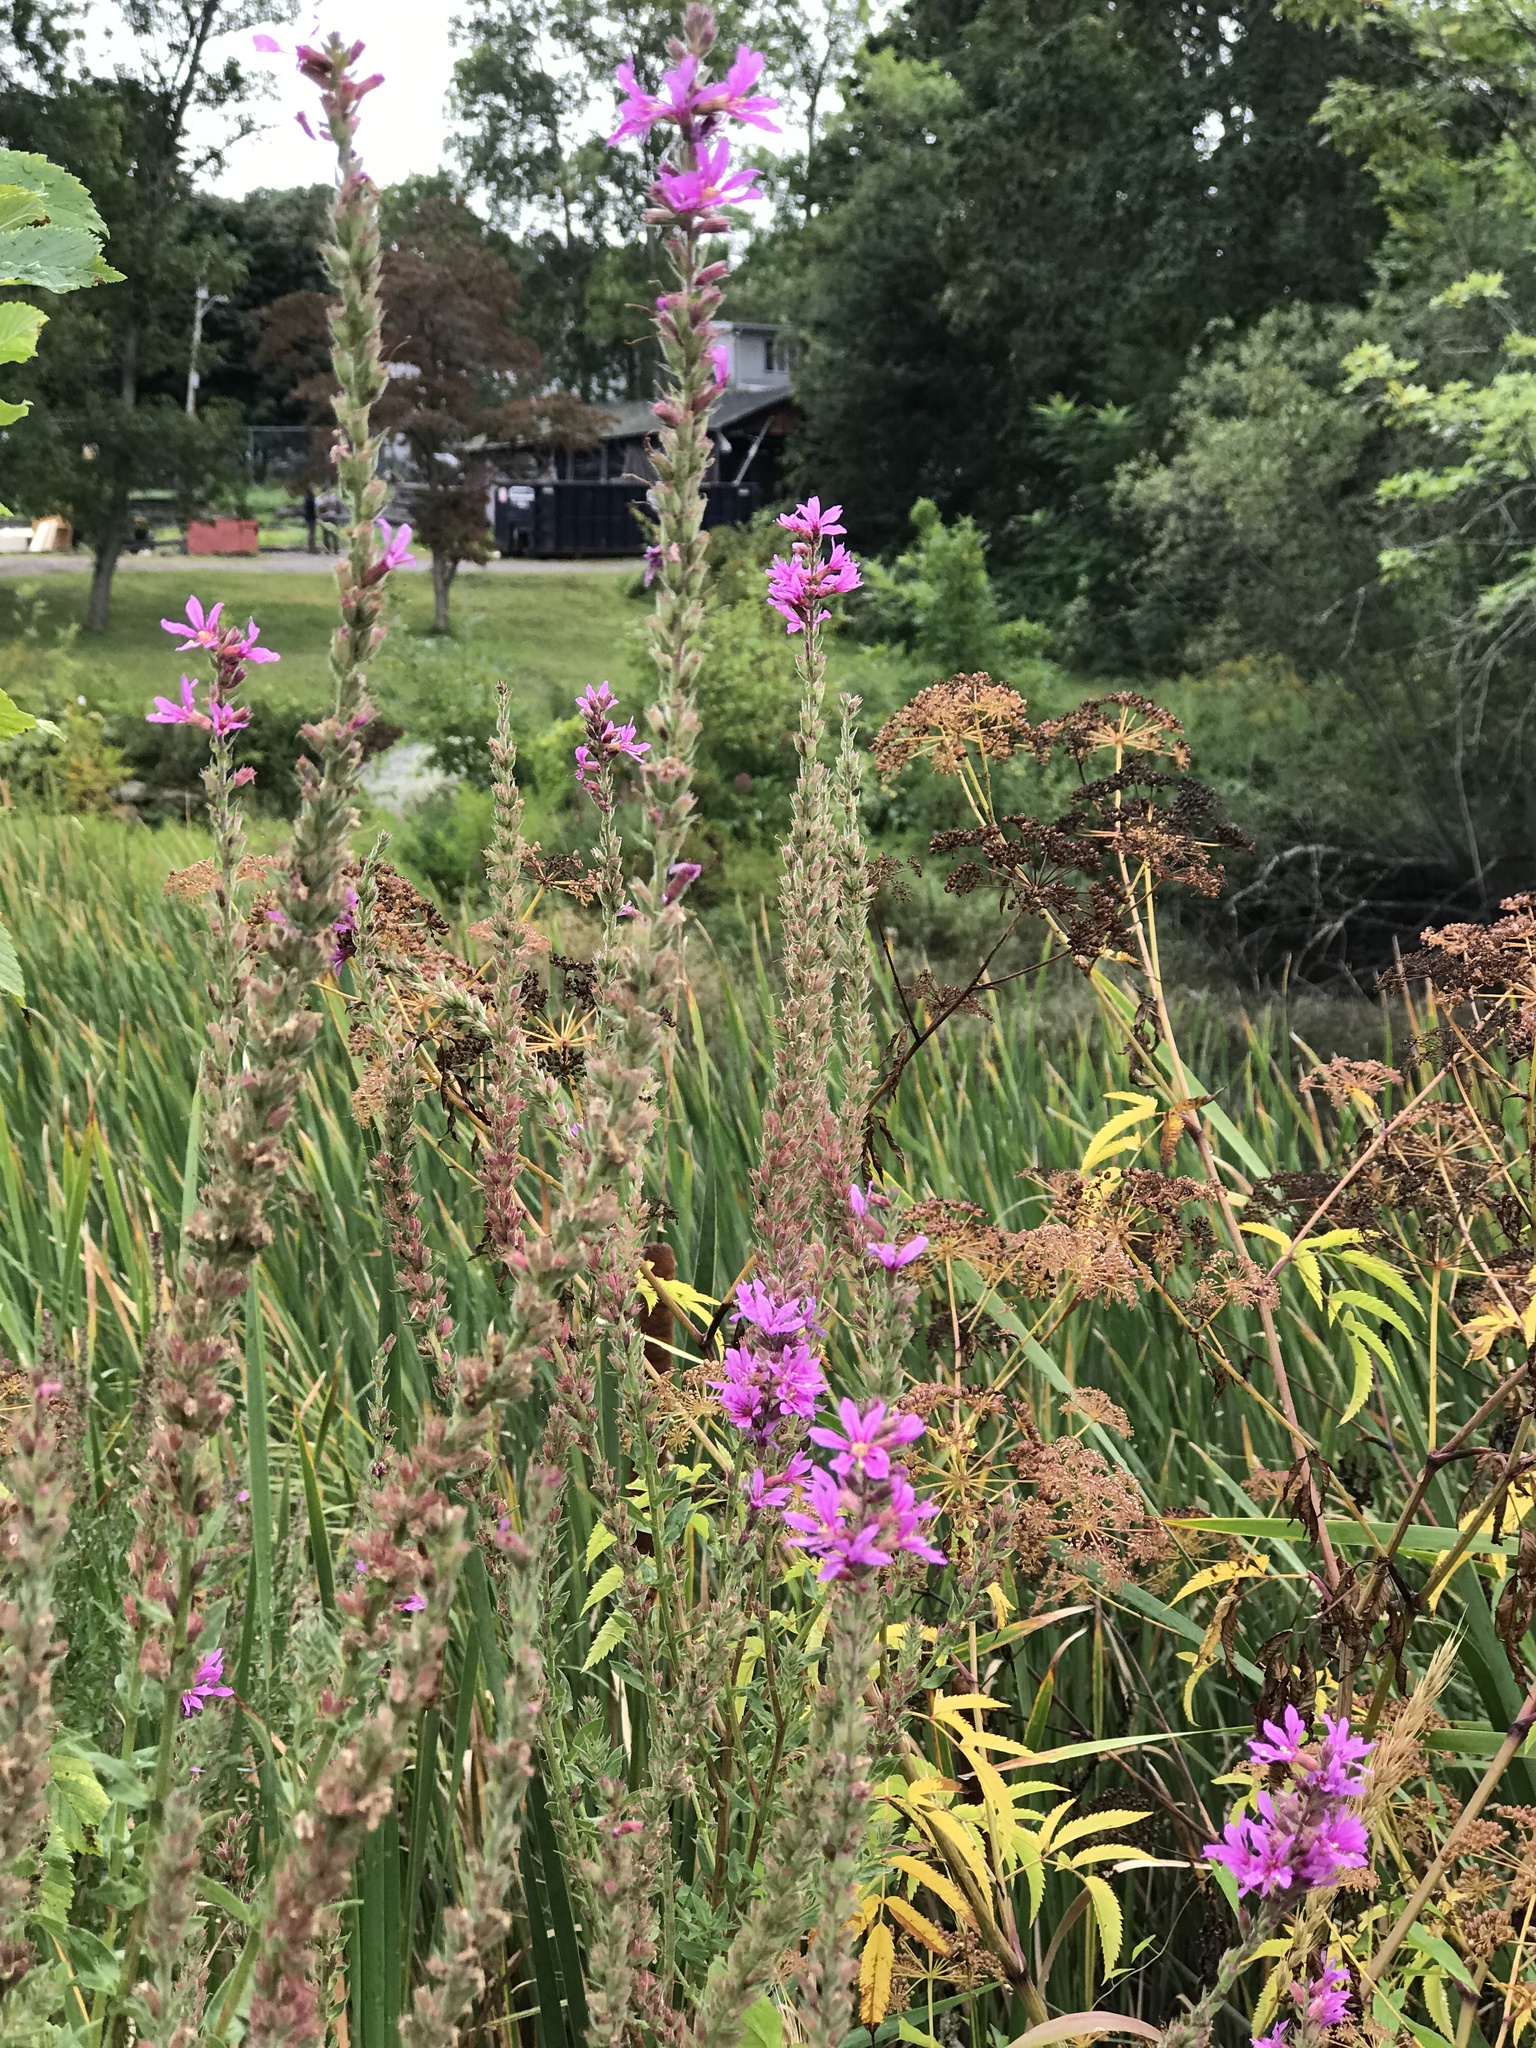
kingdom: Plantae
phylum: Tracheophyta
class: Magnoliopsida
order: Myrtales
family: Lythraceae
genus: Lythrum
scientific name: Lythrum salicaria
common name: Purple loosestrife
